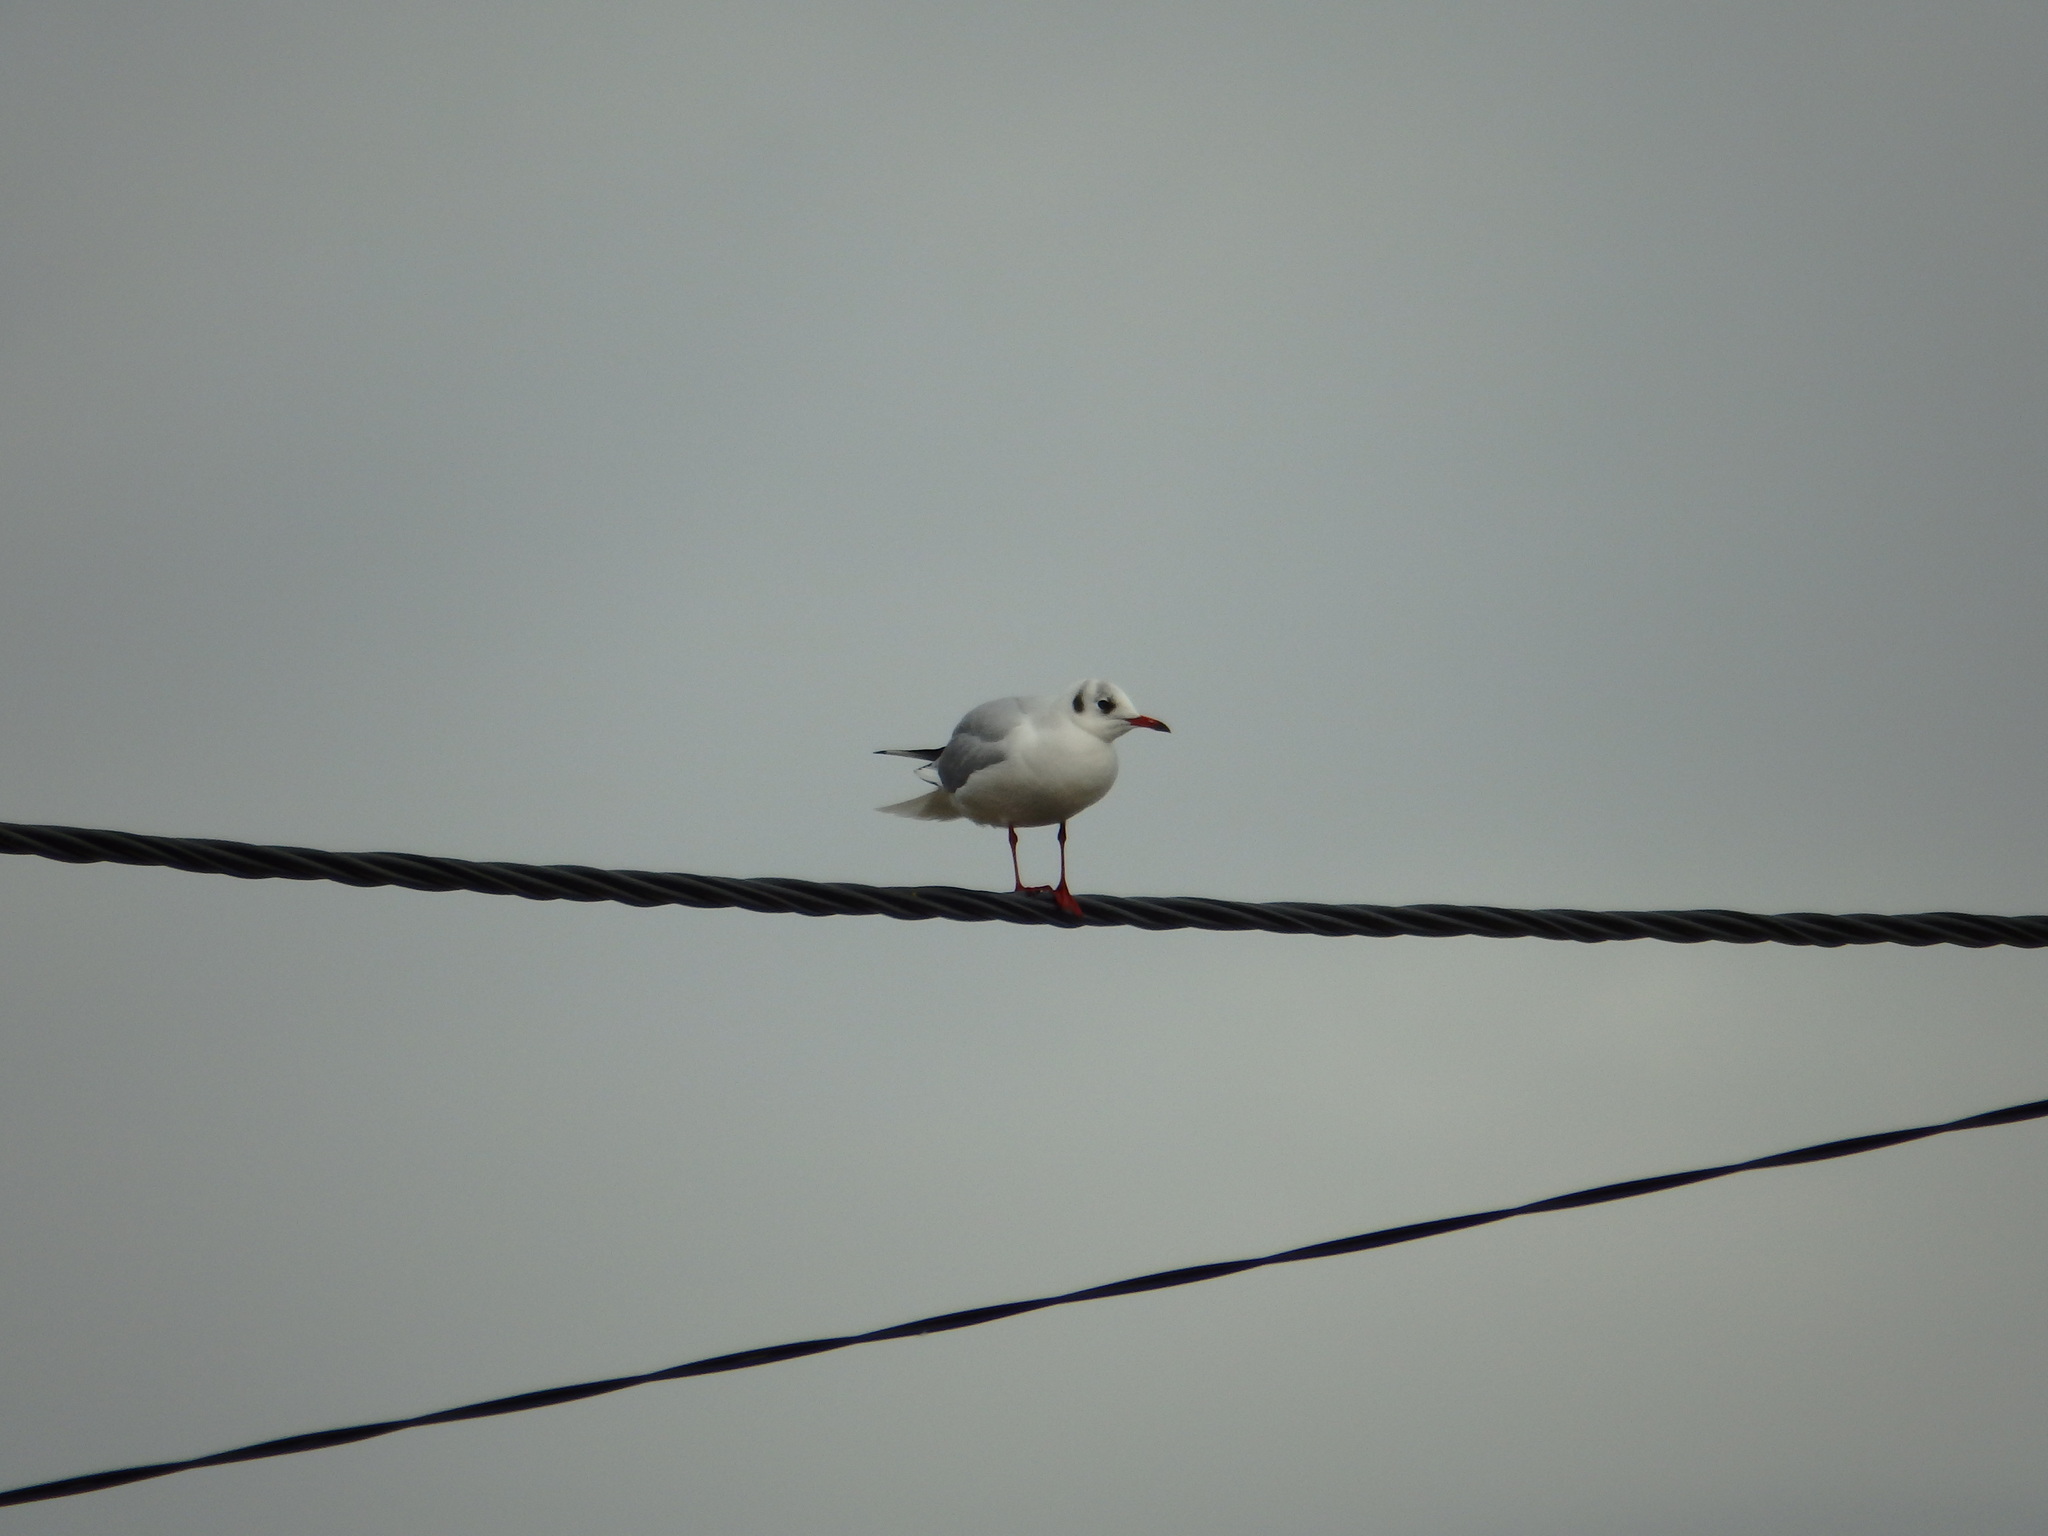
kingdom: Animalia
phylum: Chordata
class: Aves
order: Charadriiformes
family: Laridae
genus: Chroicocephalus
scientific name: Chroicocephalus ridibundus
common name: Black-headed gull
